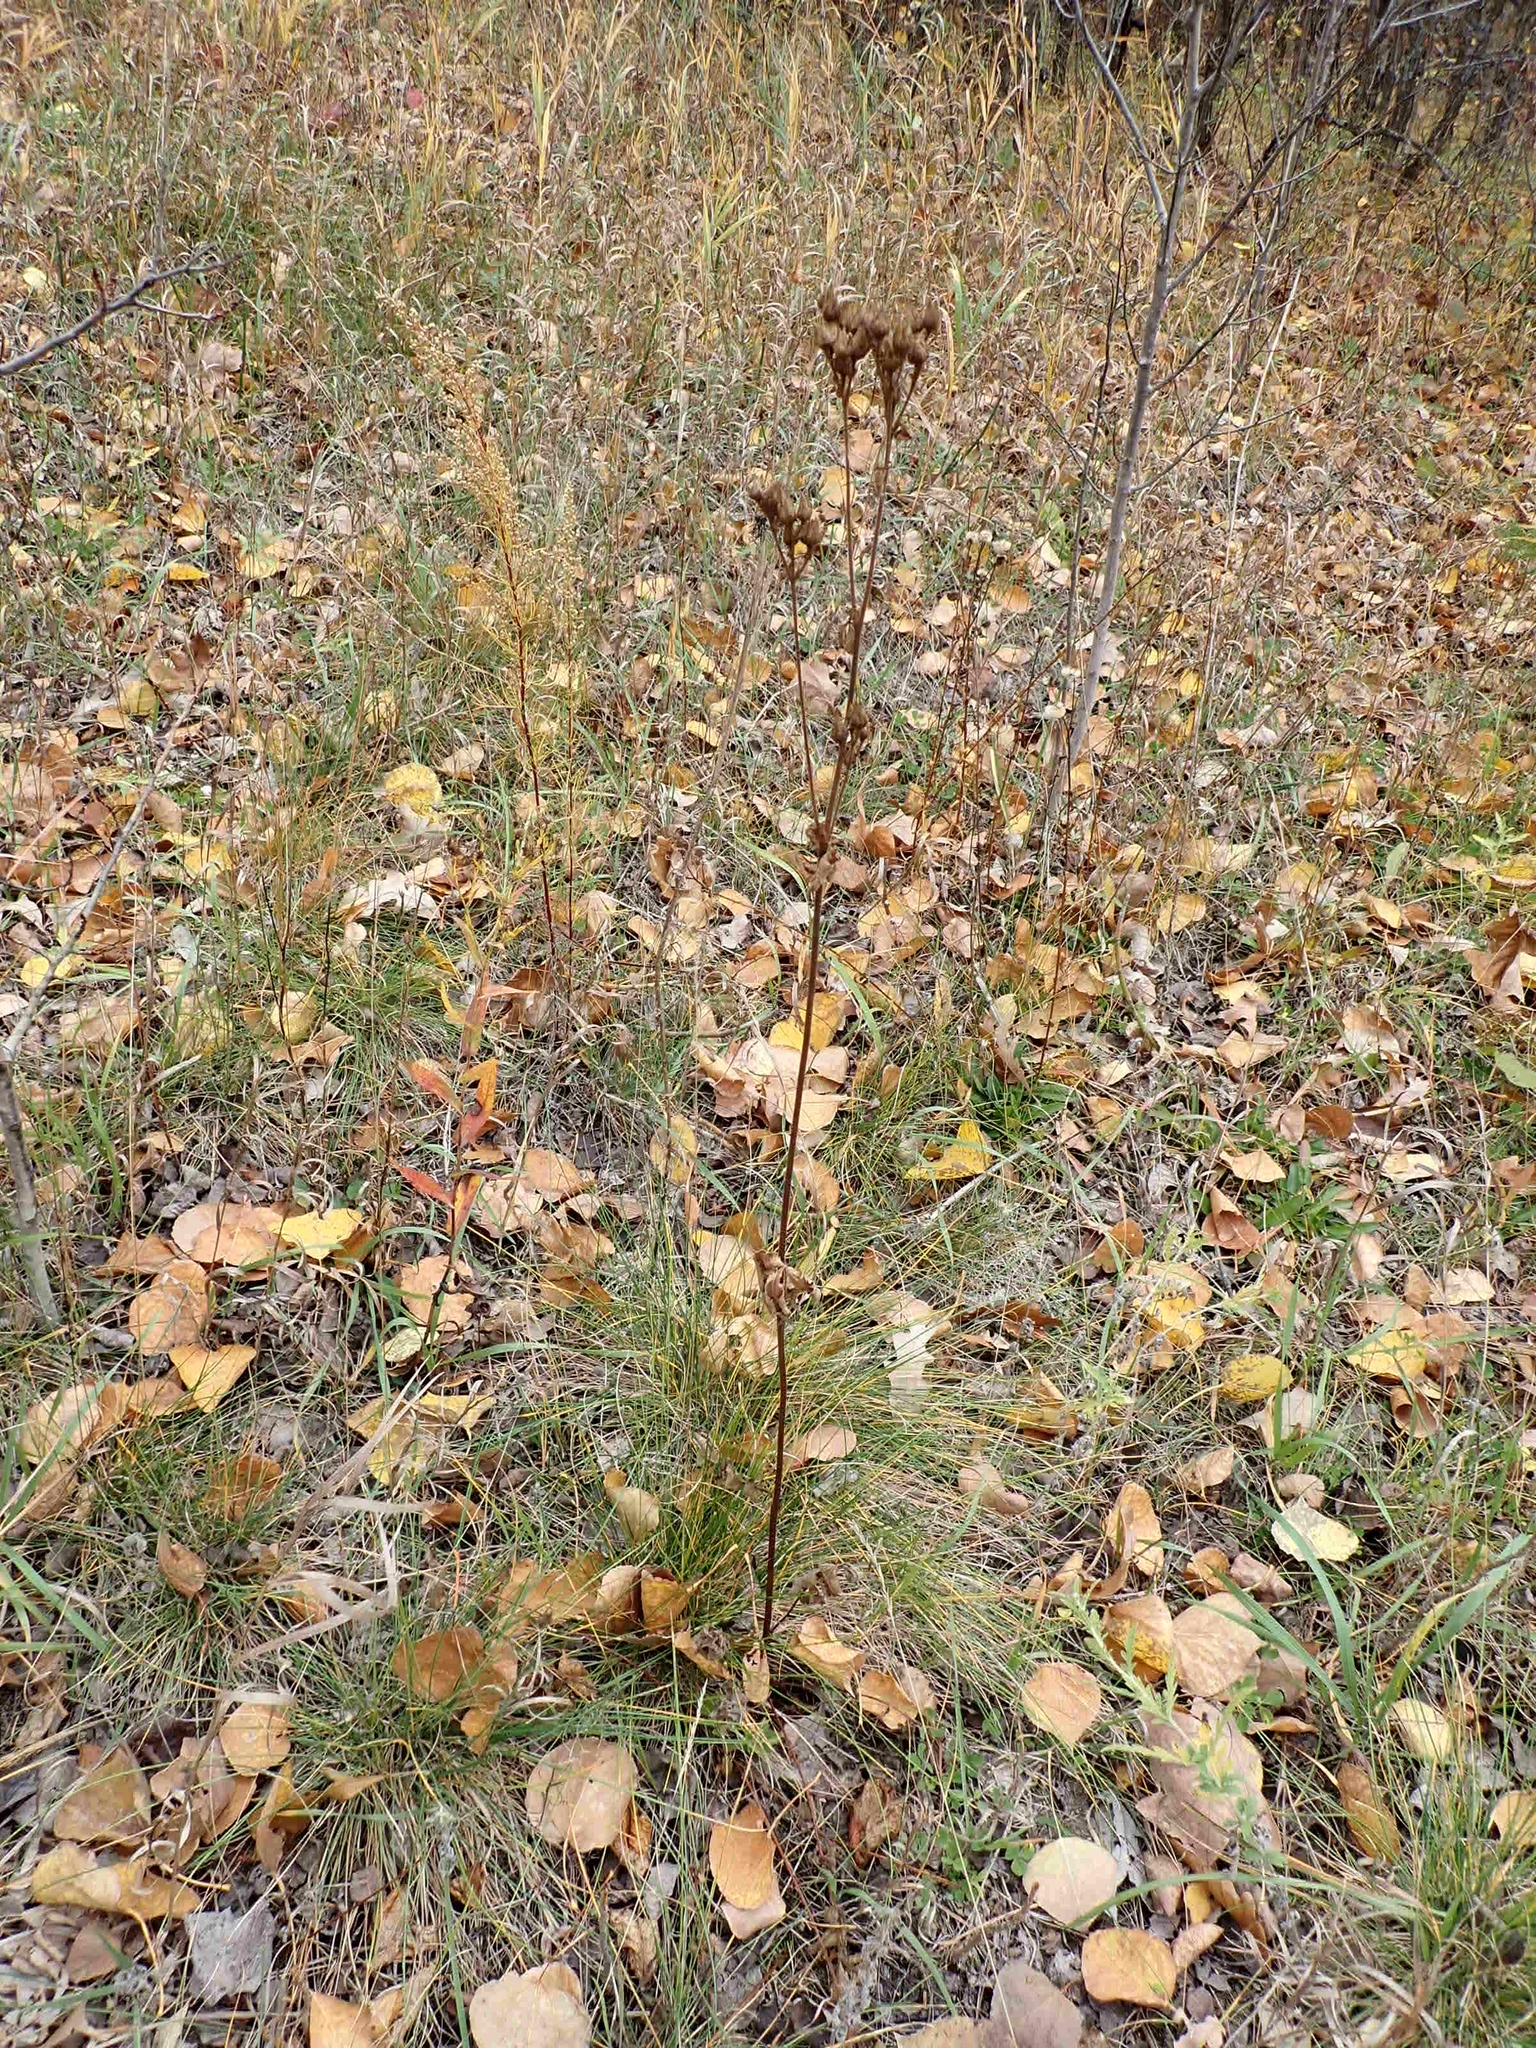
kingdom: Plantae
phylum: Tracheophyta
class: Magnoliopsida
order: Rosales
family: Rosaceae
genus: Drymocallis
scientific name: Drymocallis arguta
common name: Tall cinquefoil
